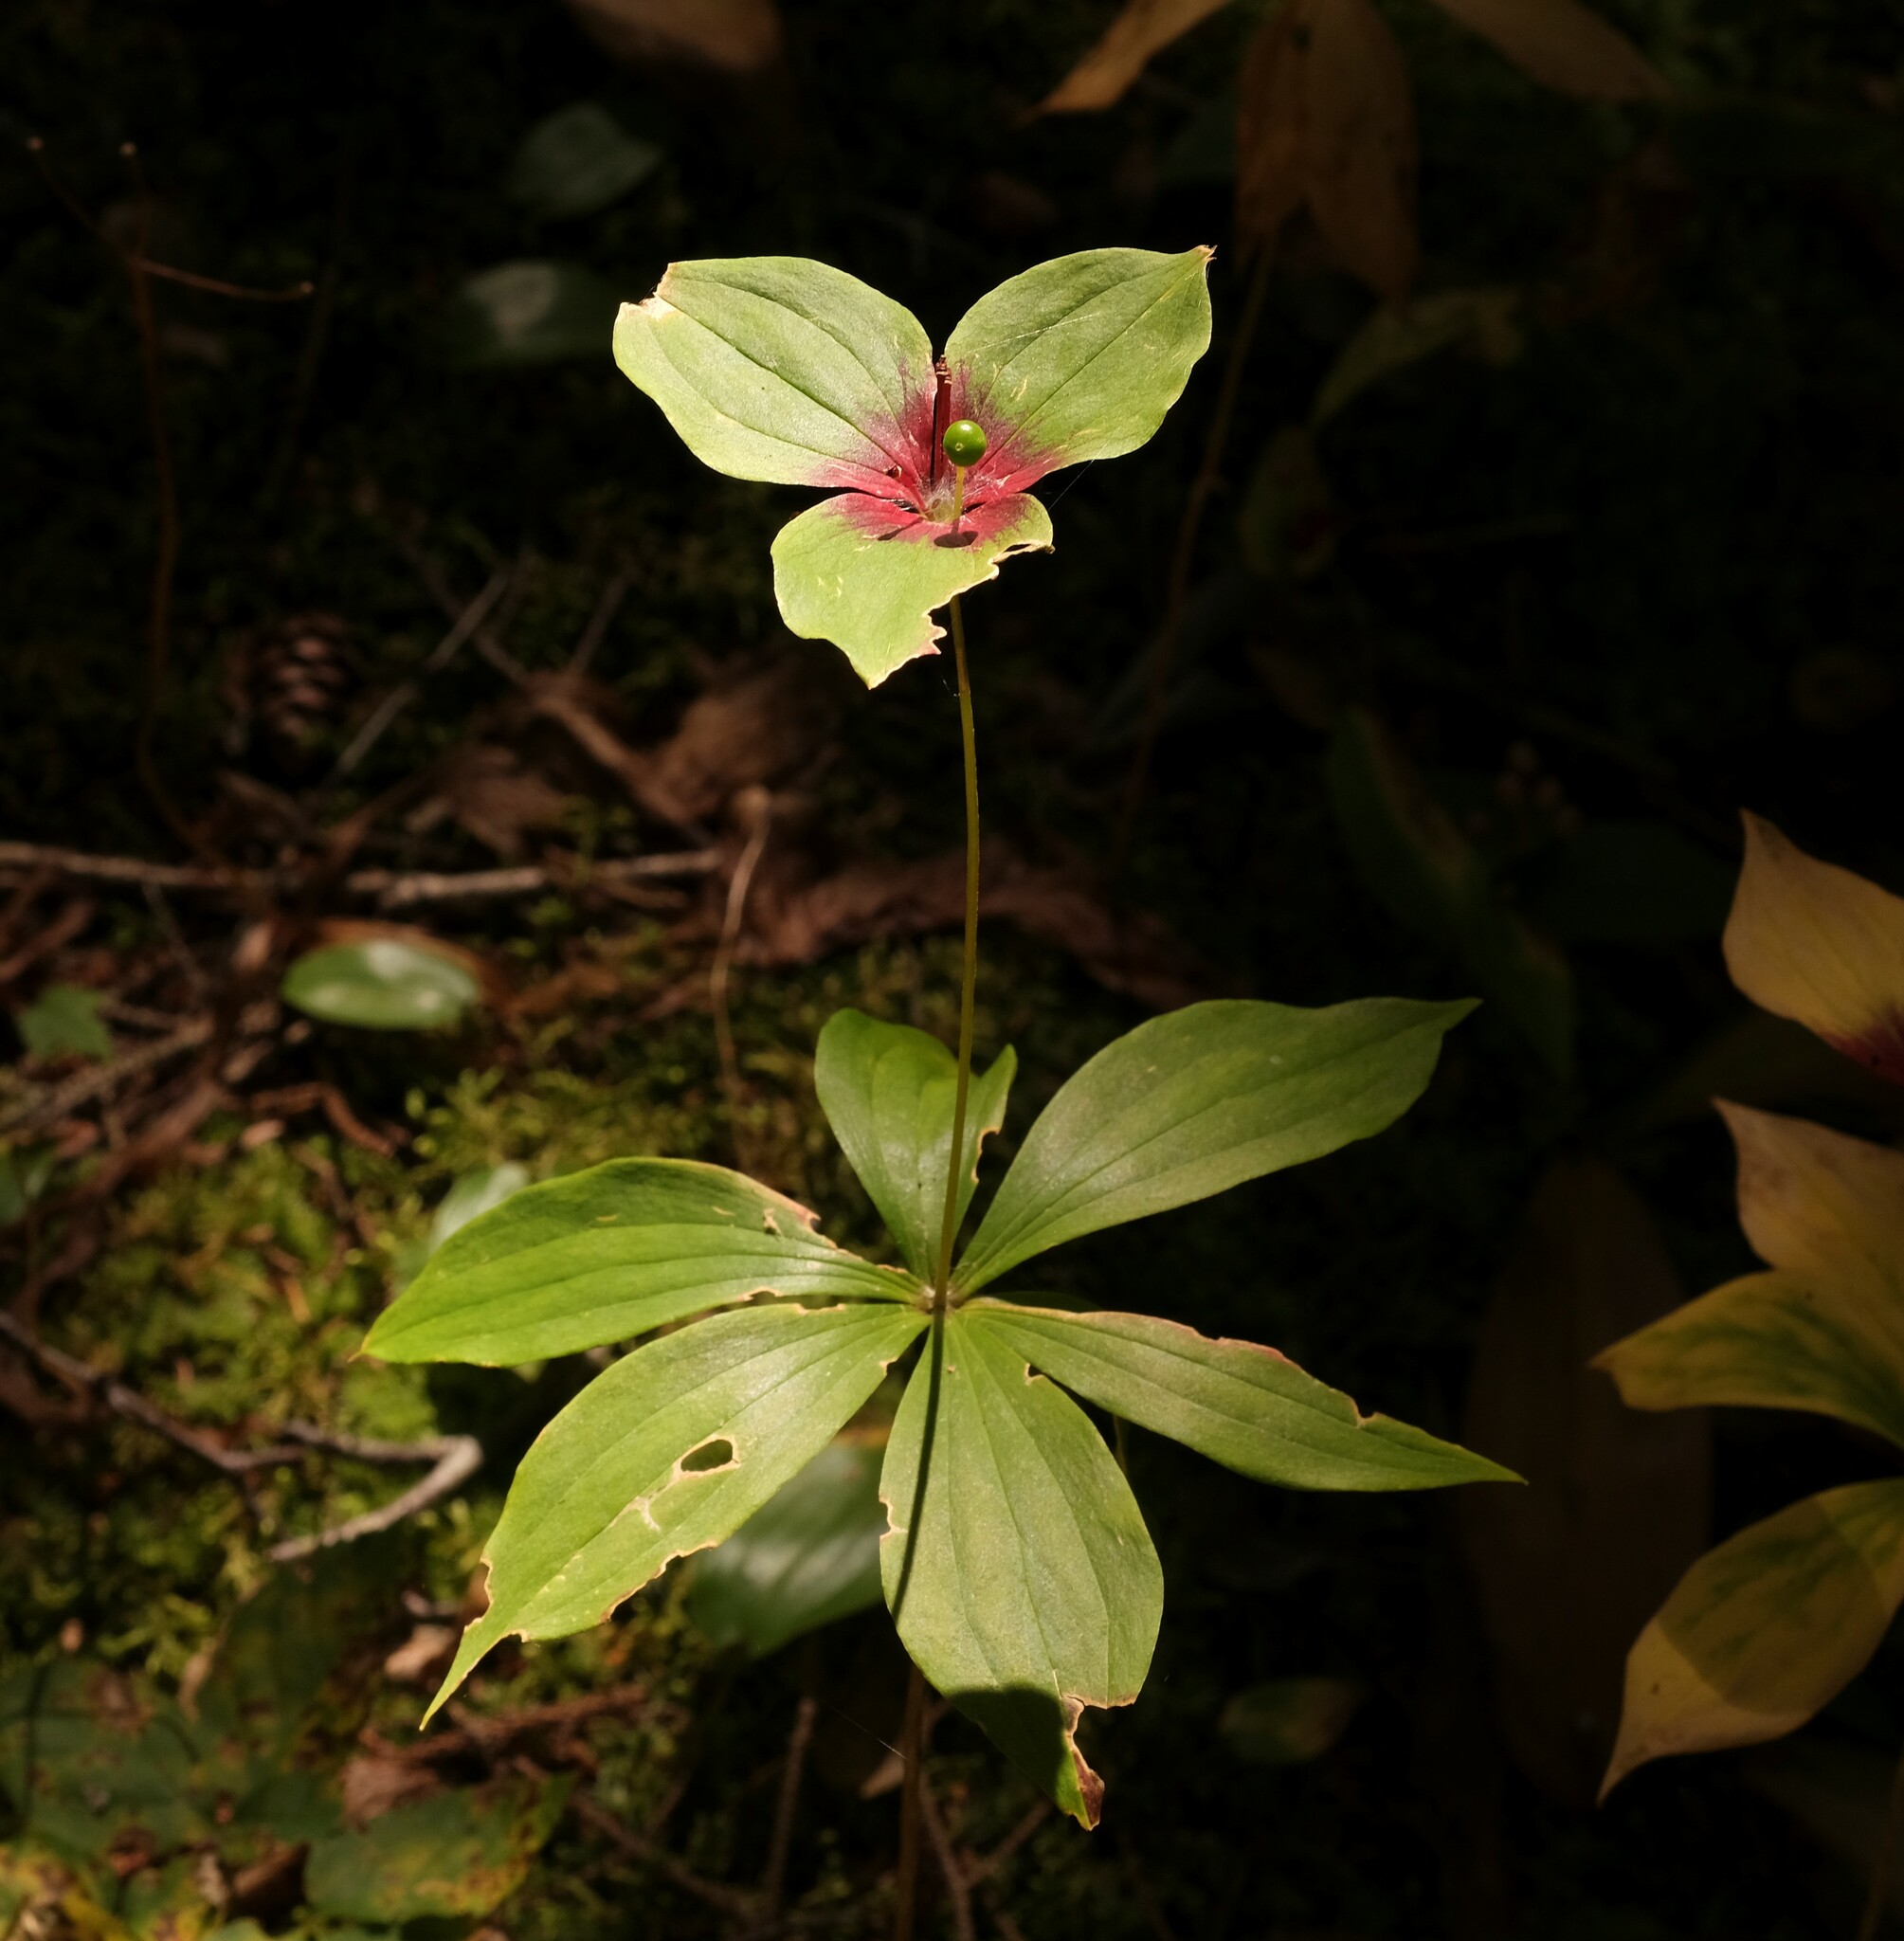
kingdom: Plantae
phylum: Tracheophyta
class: Liliopsida
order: Liliales
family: Liliaceae
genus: Medeola
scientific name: Medeola virginiana
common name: Indian cucumber-root
